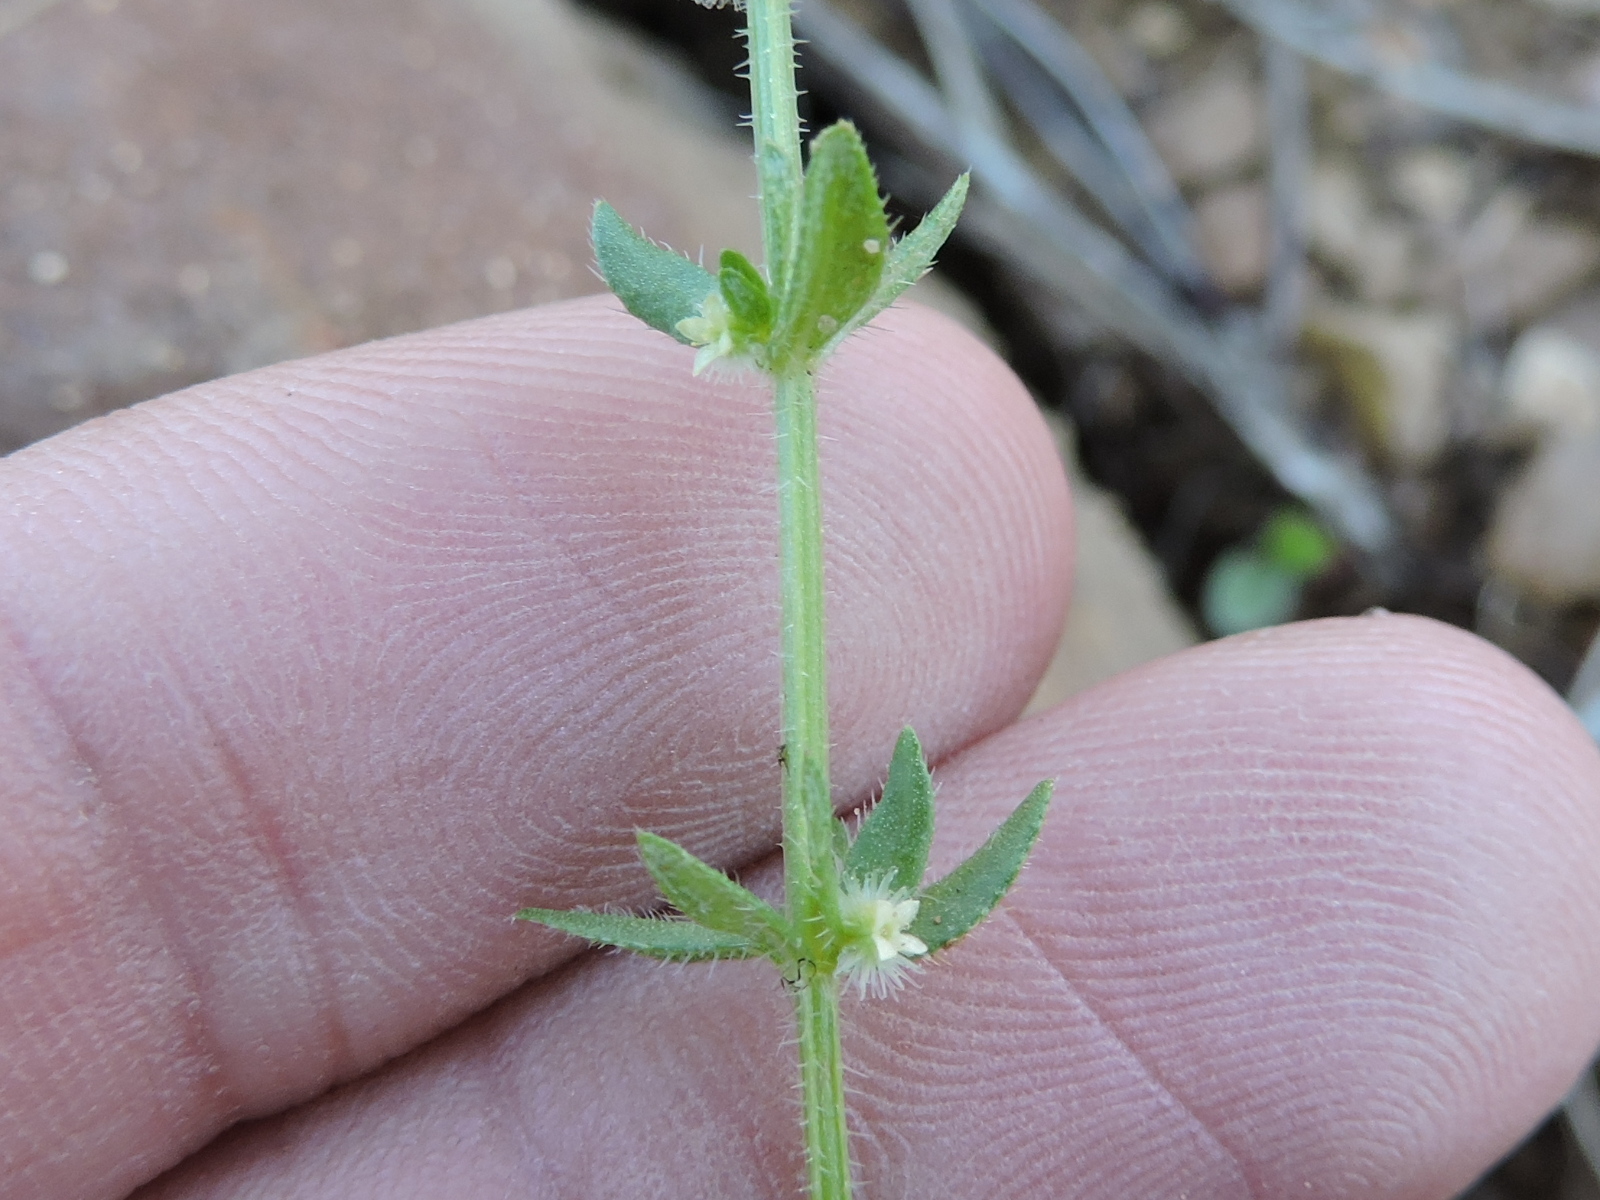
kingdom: Plantae
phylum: Tracheophyta
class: Magnoliopsida
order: Gentianales
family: Rubiaceae
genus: Galium
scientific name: Galium virgatum
